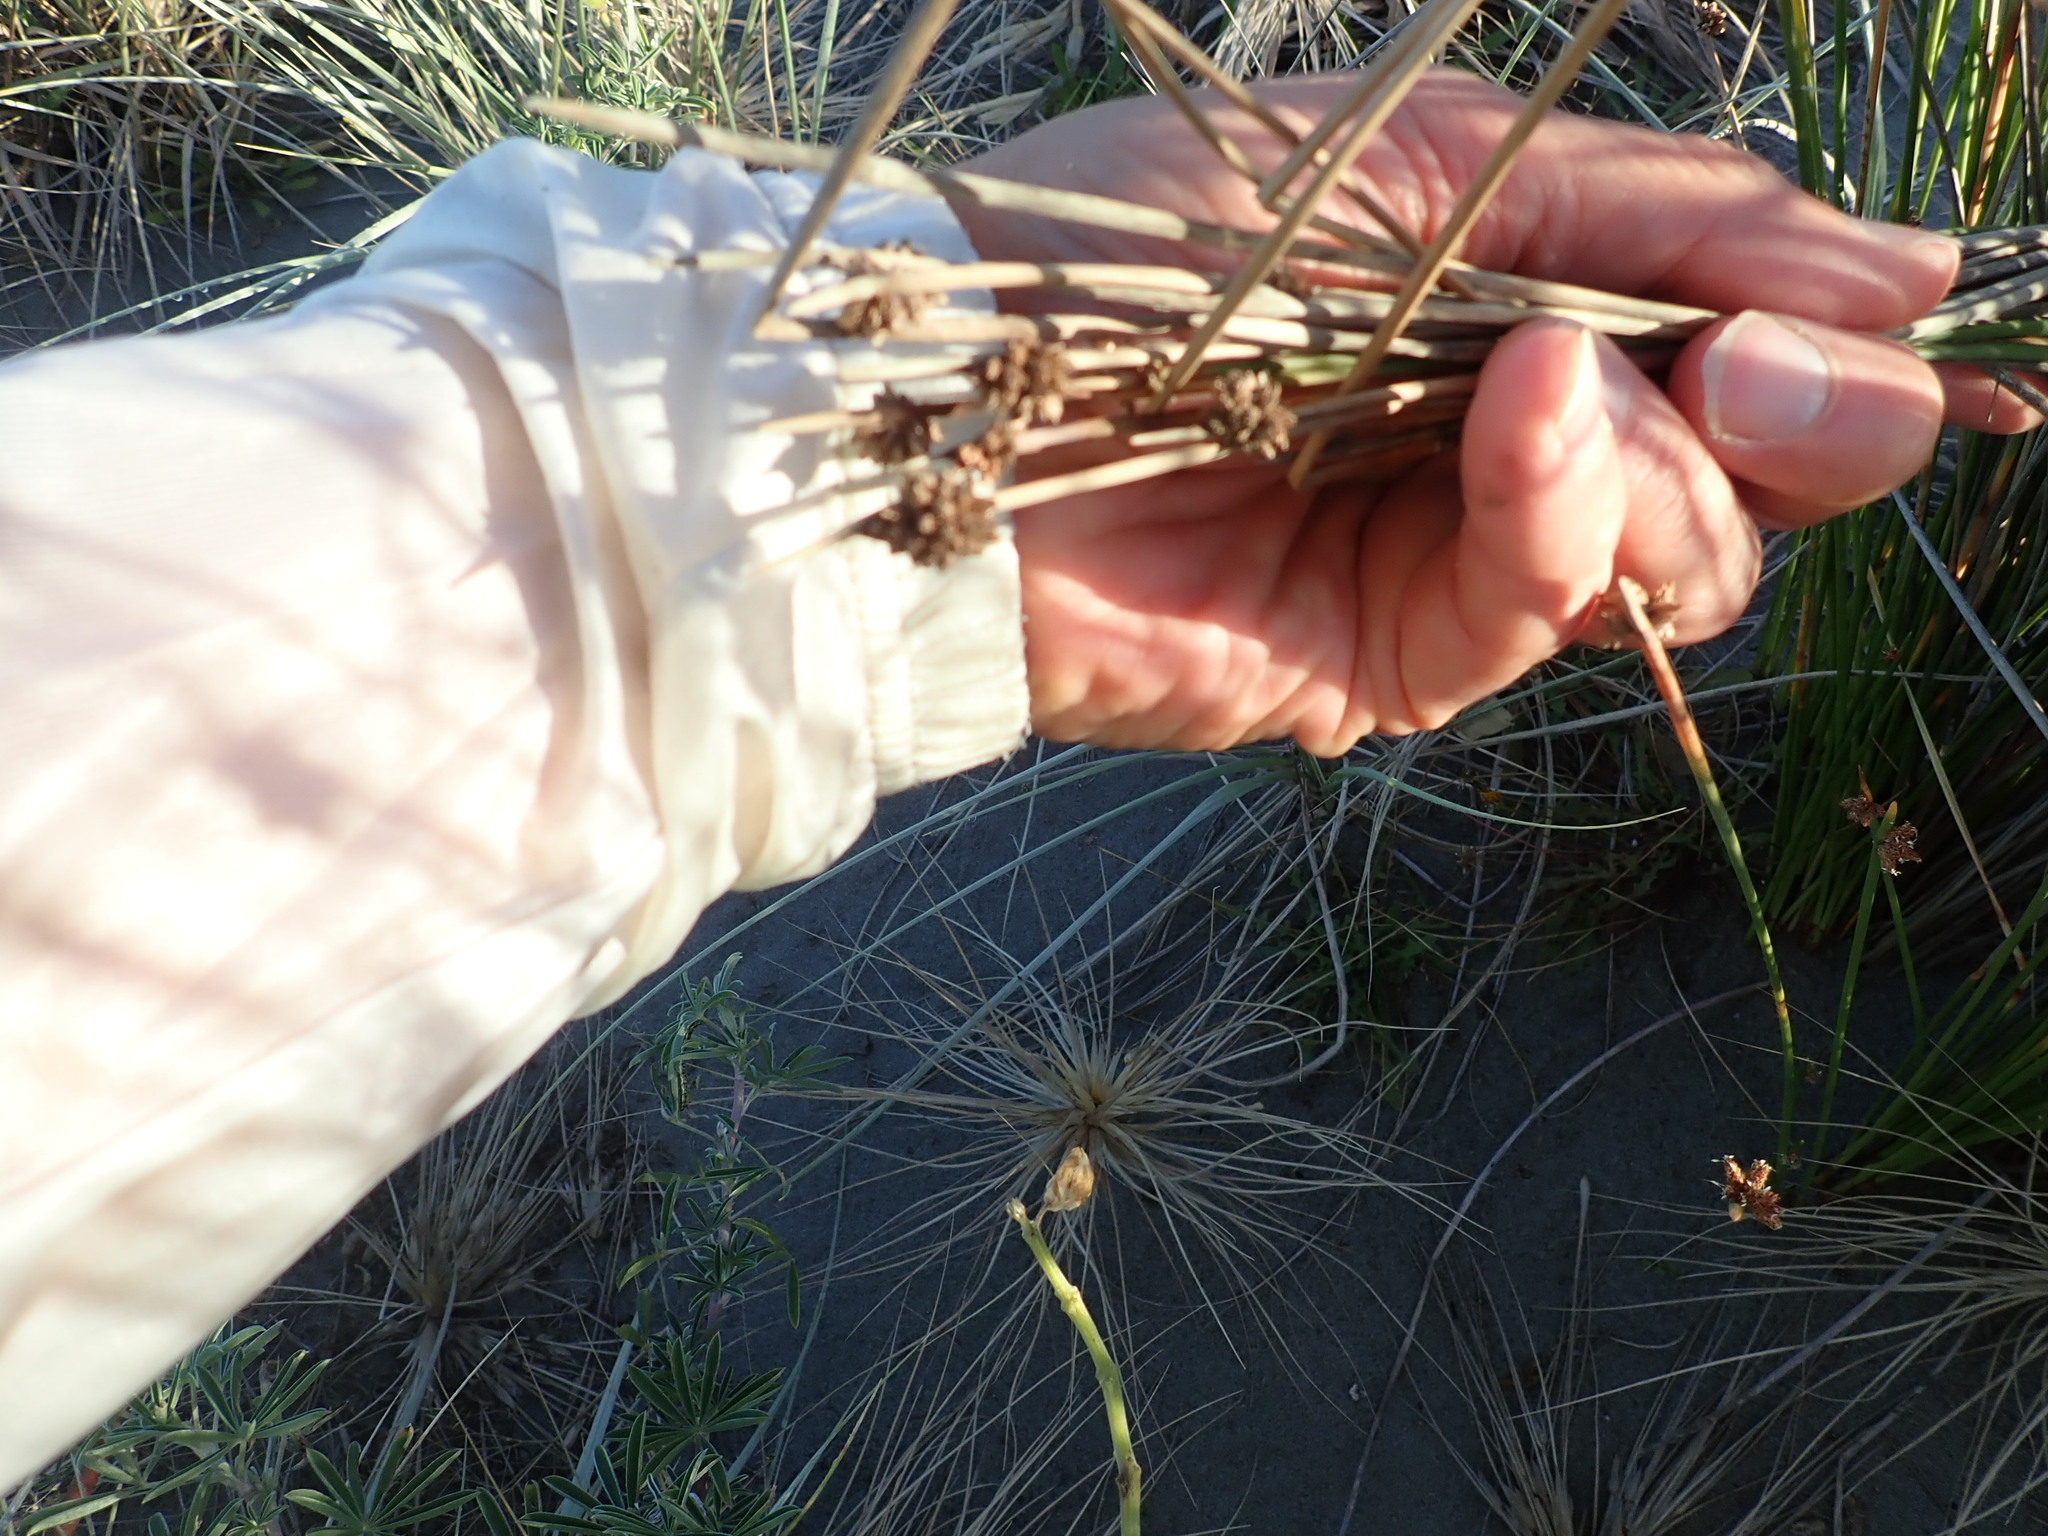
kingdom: Plantae
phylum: Tracheophyta
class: Liliopsida
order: Poales
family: Cyperaceae
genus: Ficinia
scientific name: Ficinia nodosa
